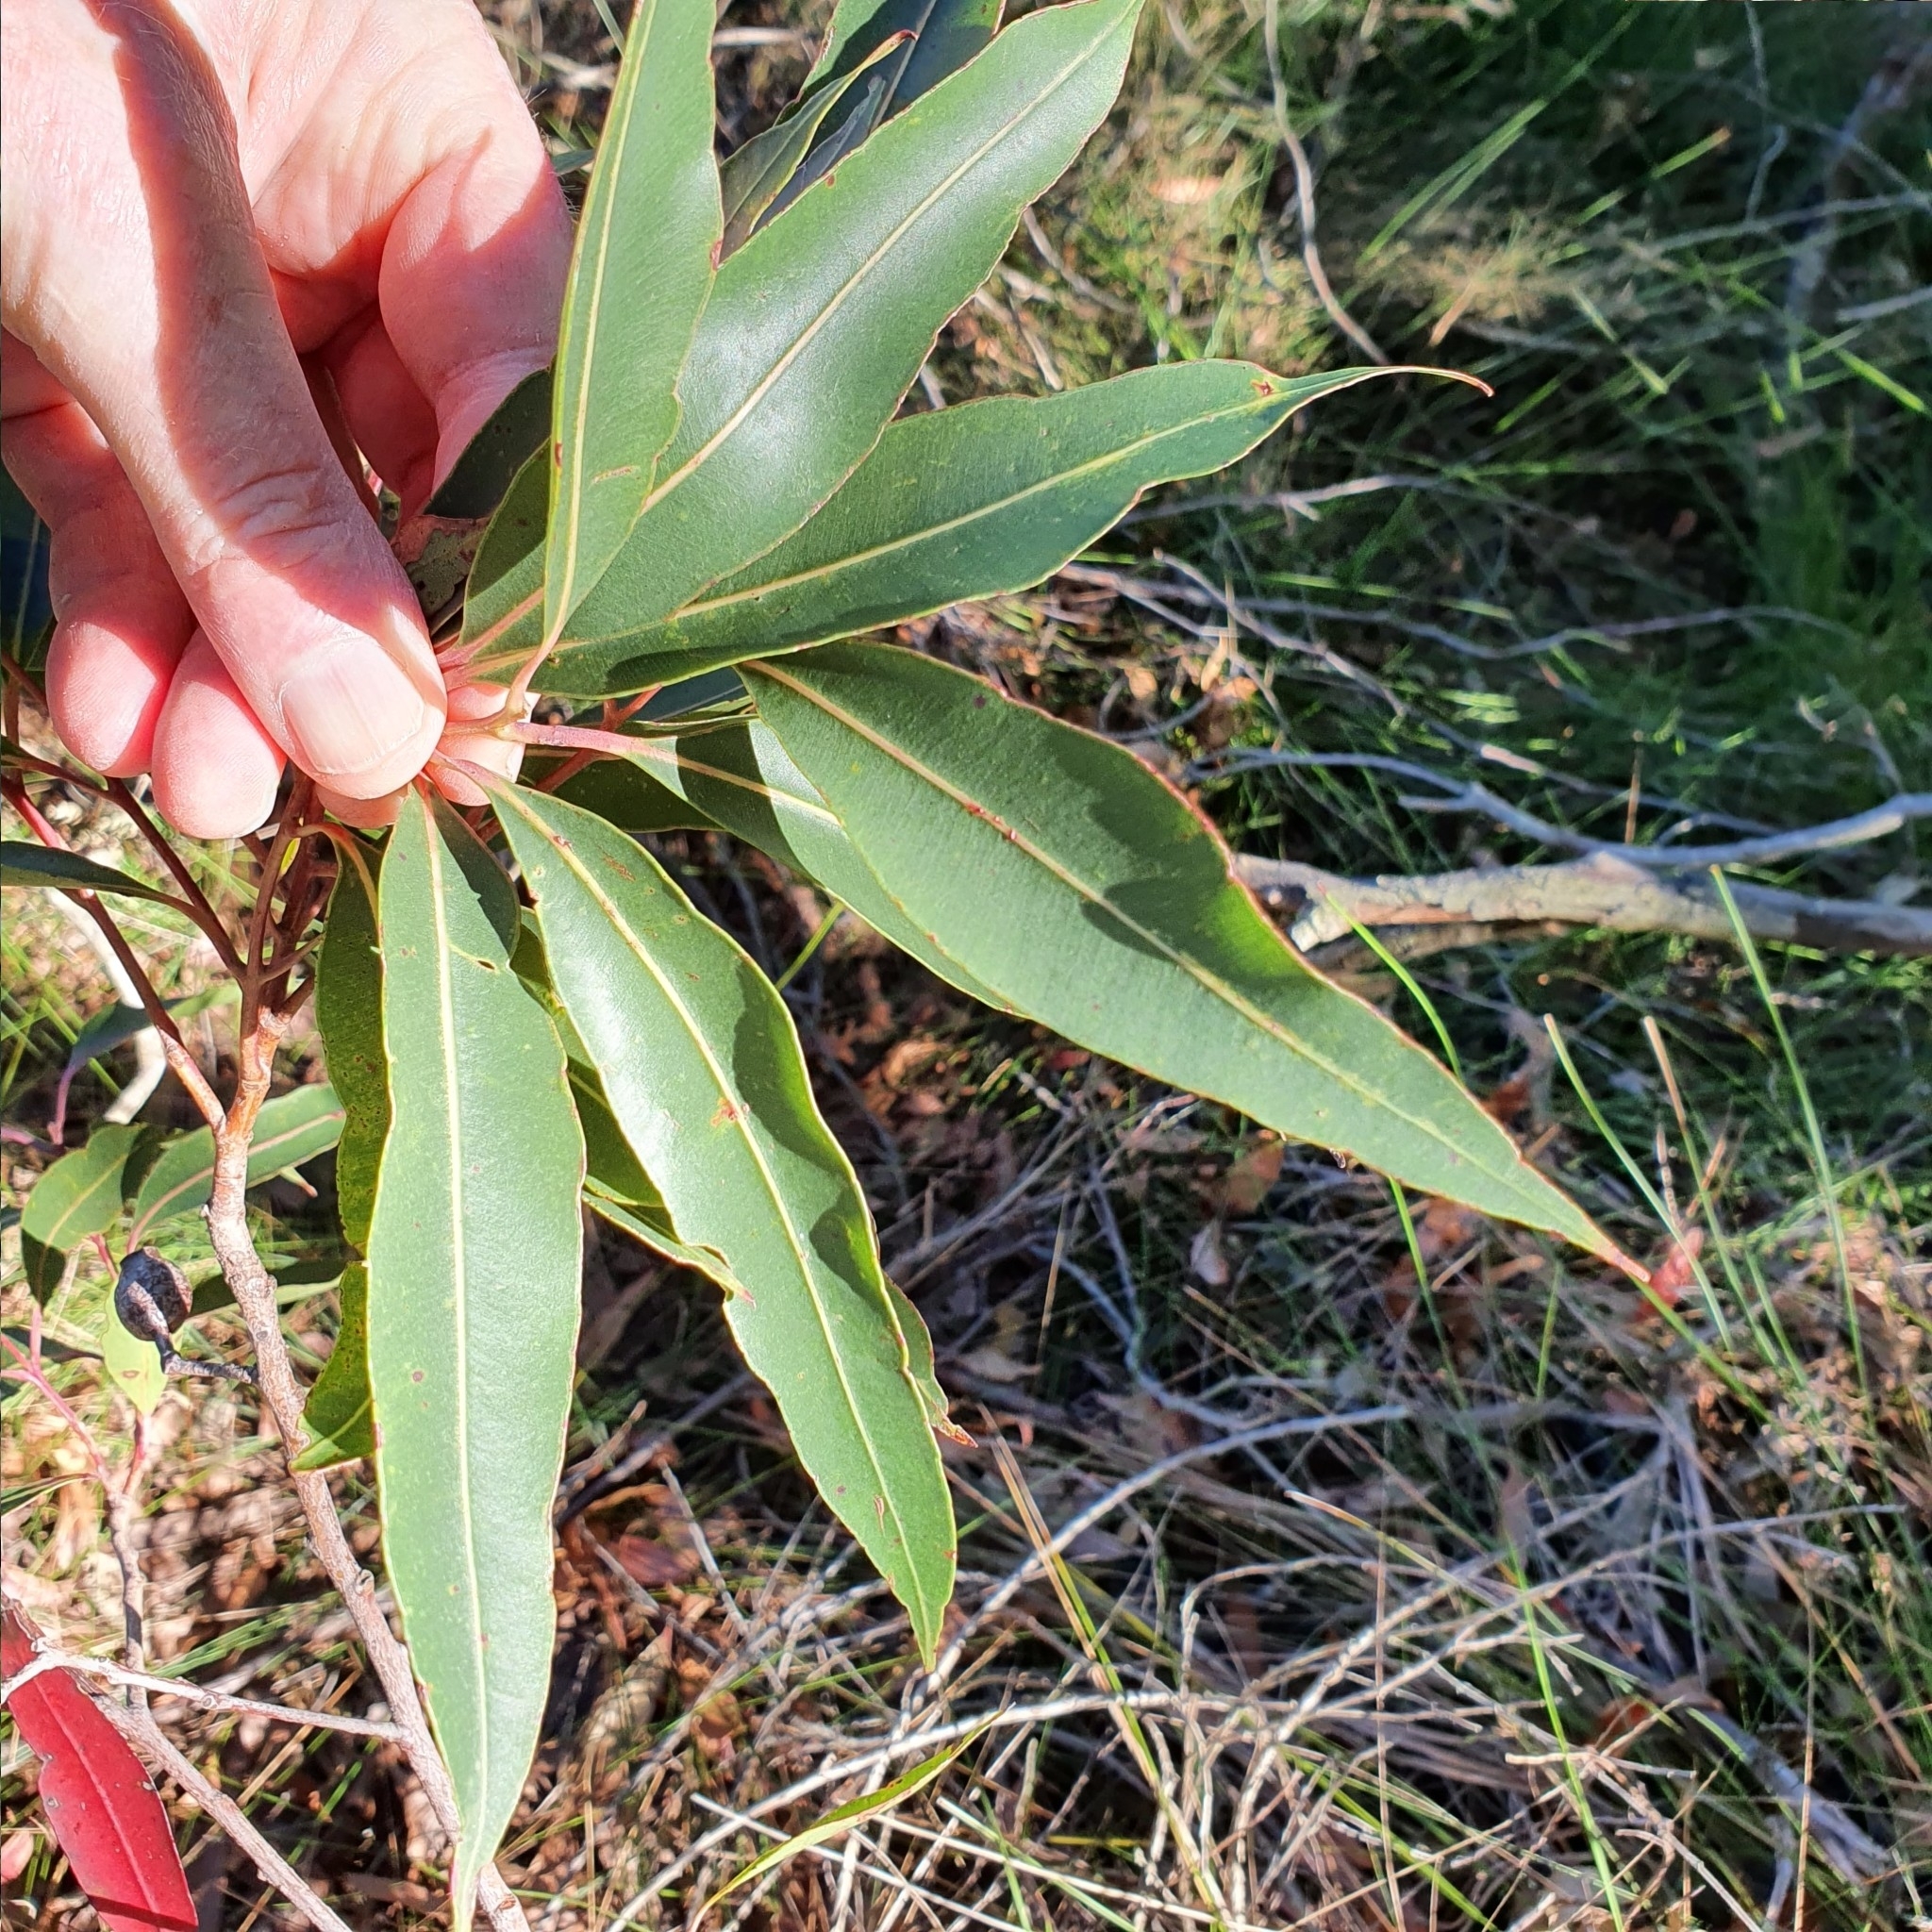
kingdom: Plantae
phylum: Tracheophyta
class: Magnoliopsida
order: Myrtales
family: Myrtaceae
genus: Corymbia
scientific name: Corymbia gummifera
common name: Red bloodwood
